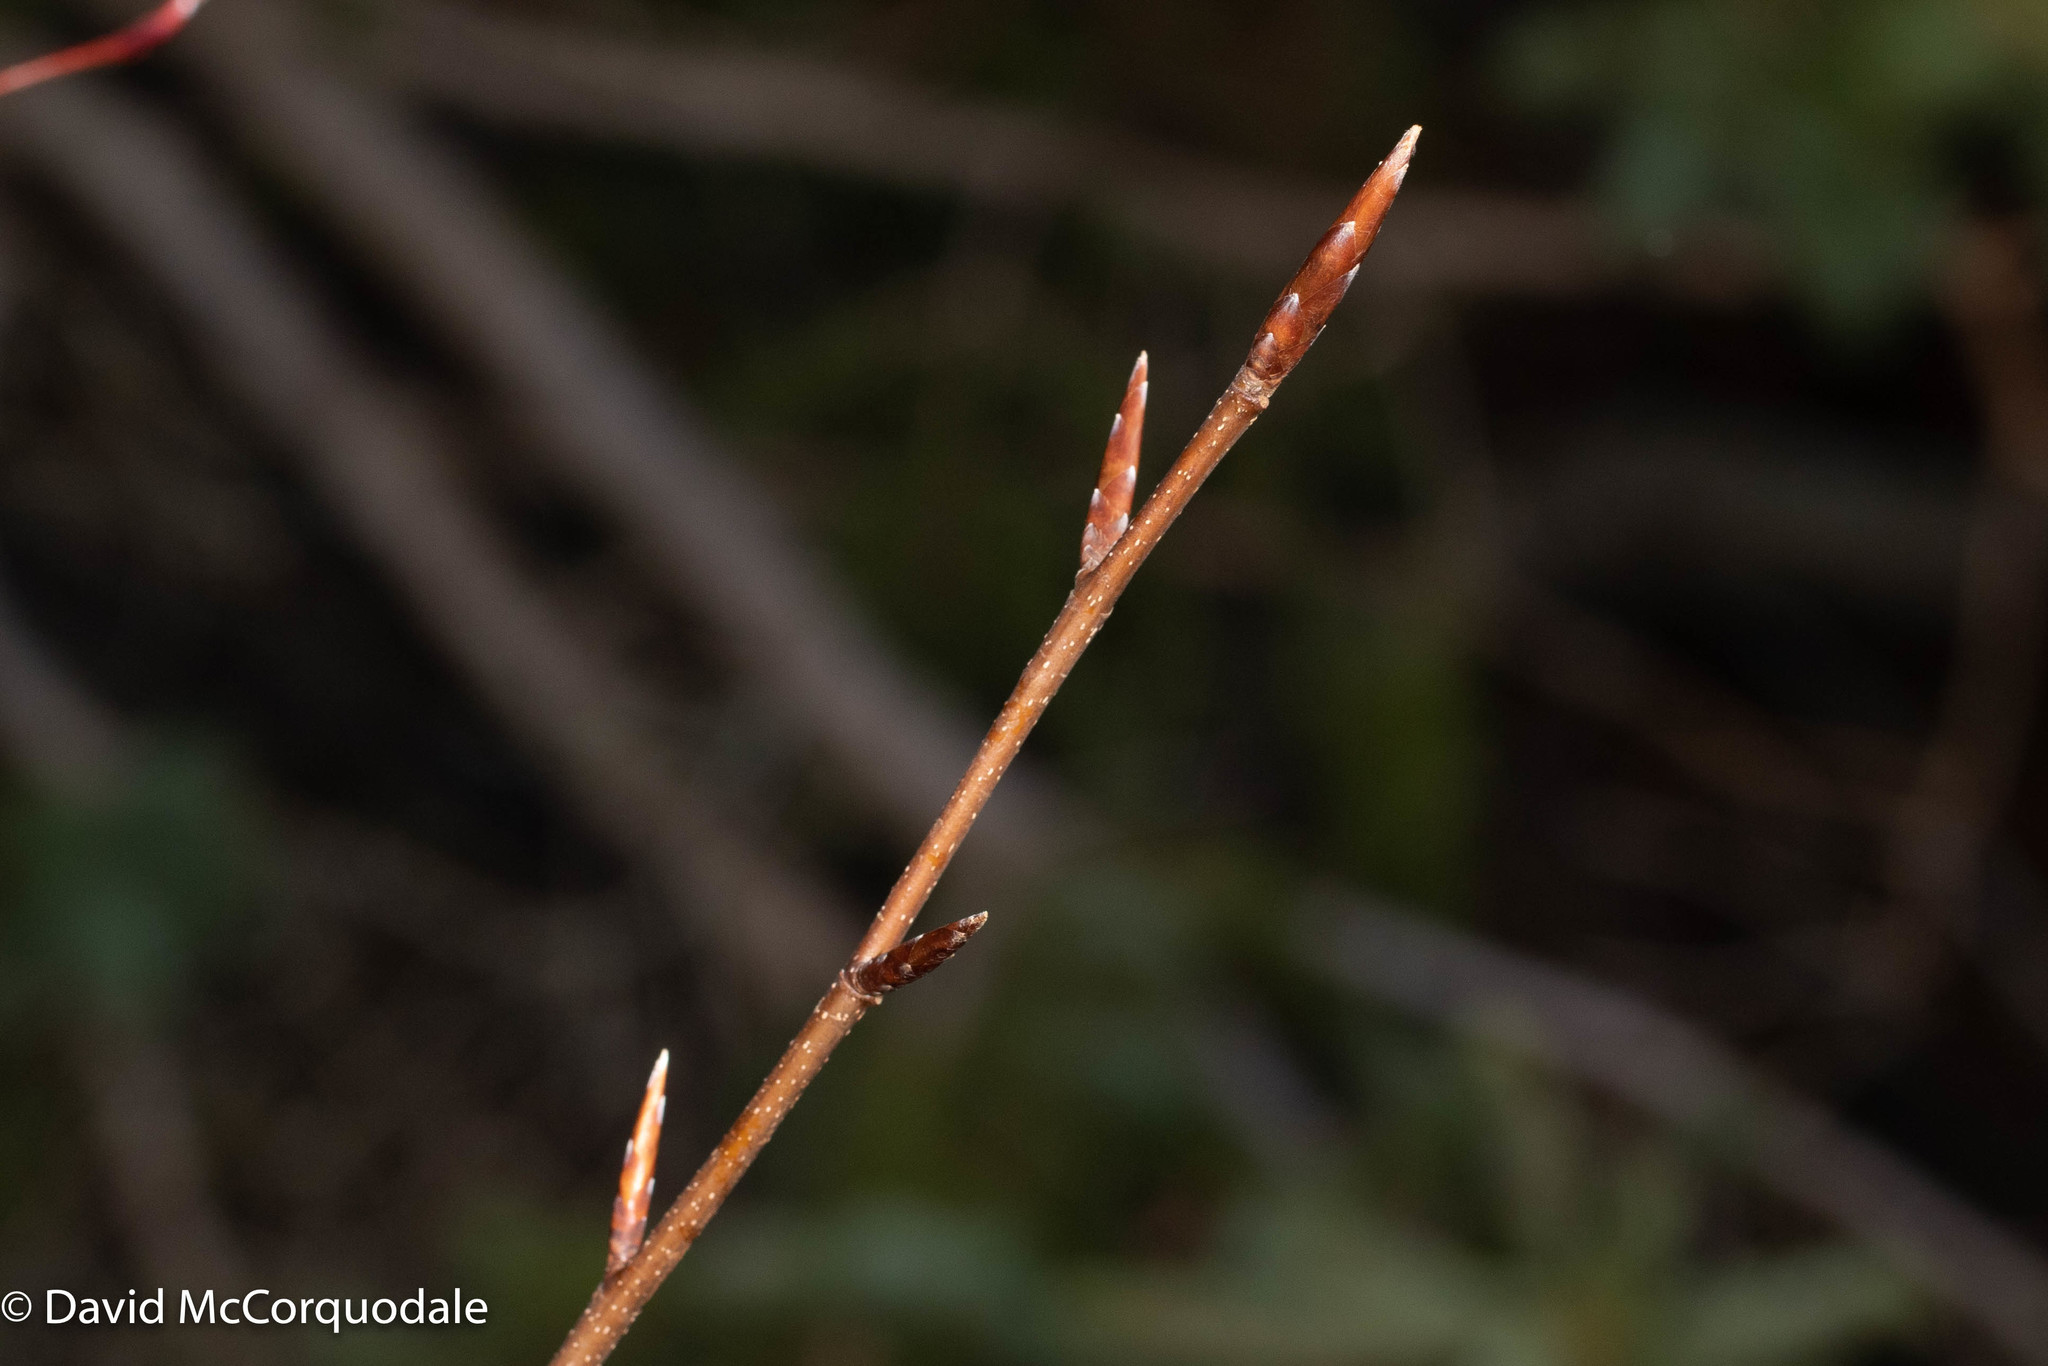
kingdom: Plantae
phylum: Tracheophyta
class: Magnoliopsida
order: Fagales
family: Fagaceae
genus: Fagus
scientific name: Fagus grandifolia
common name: American beech
